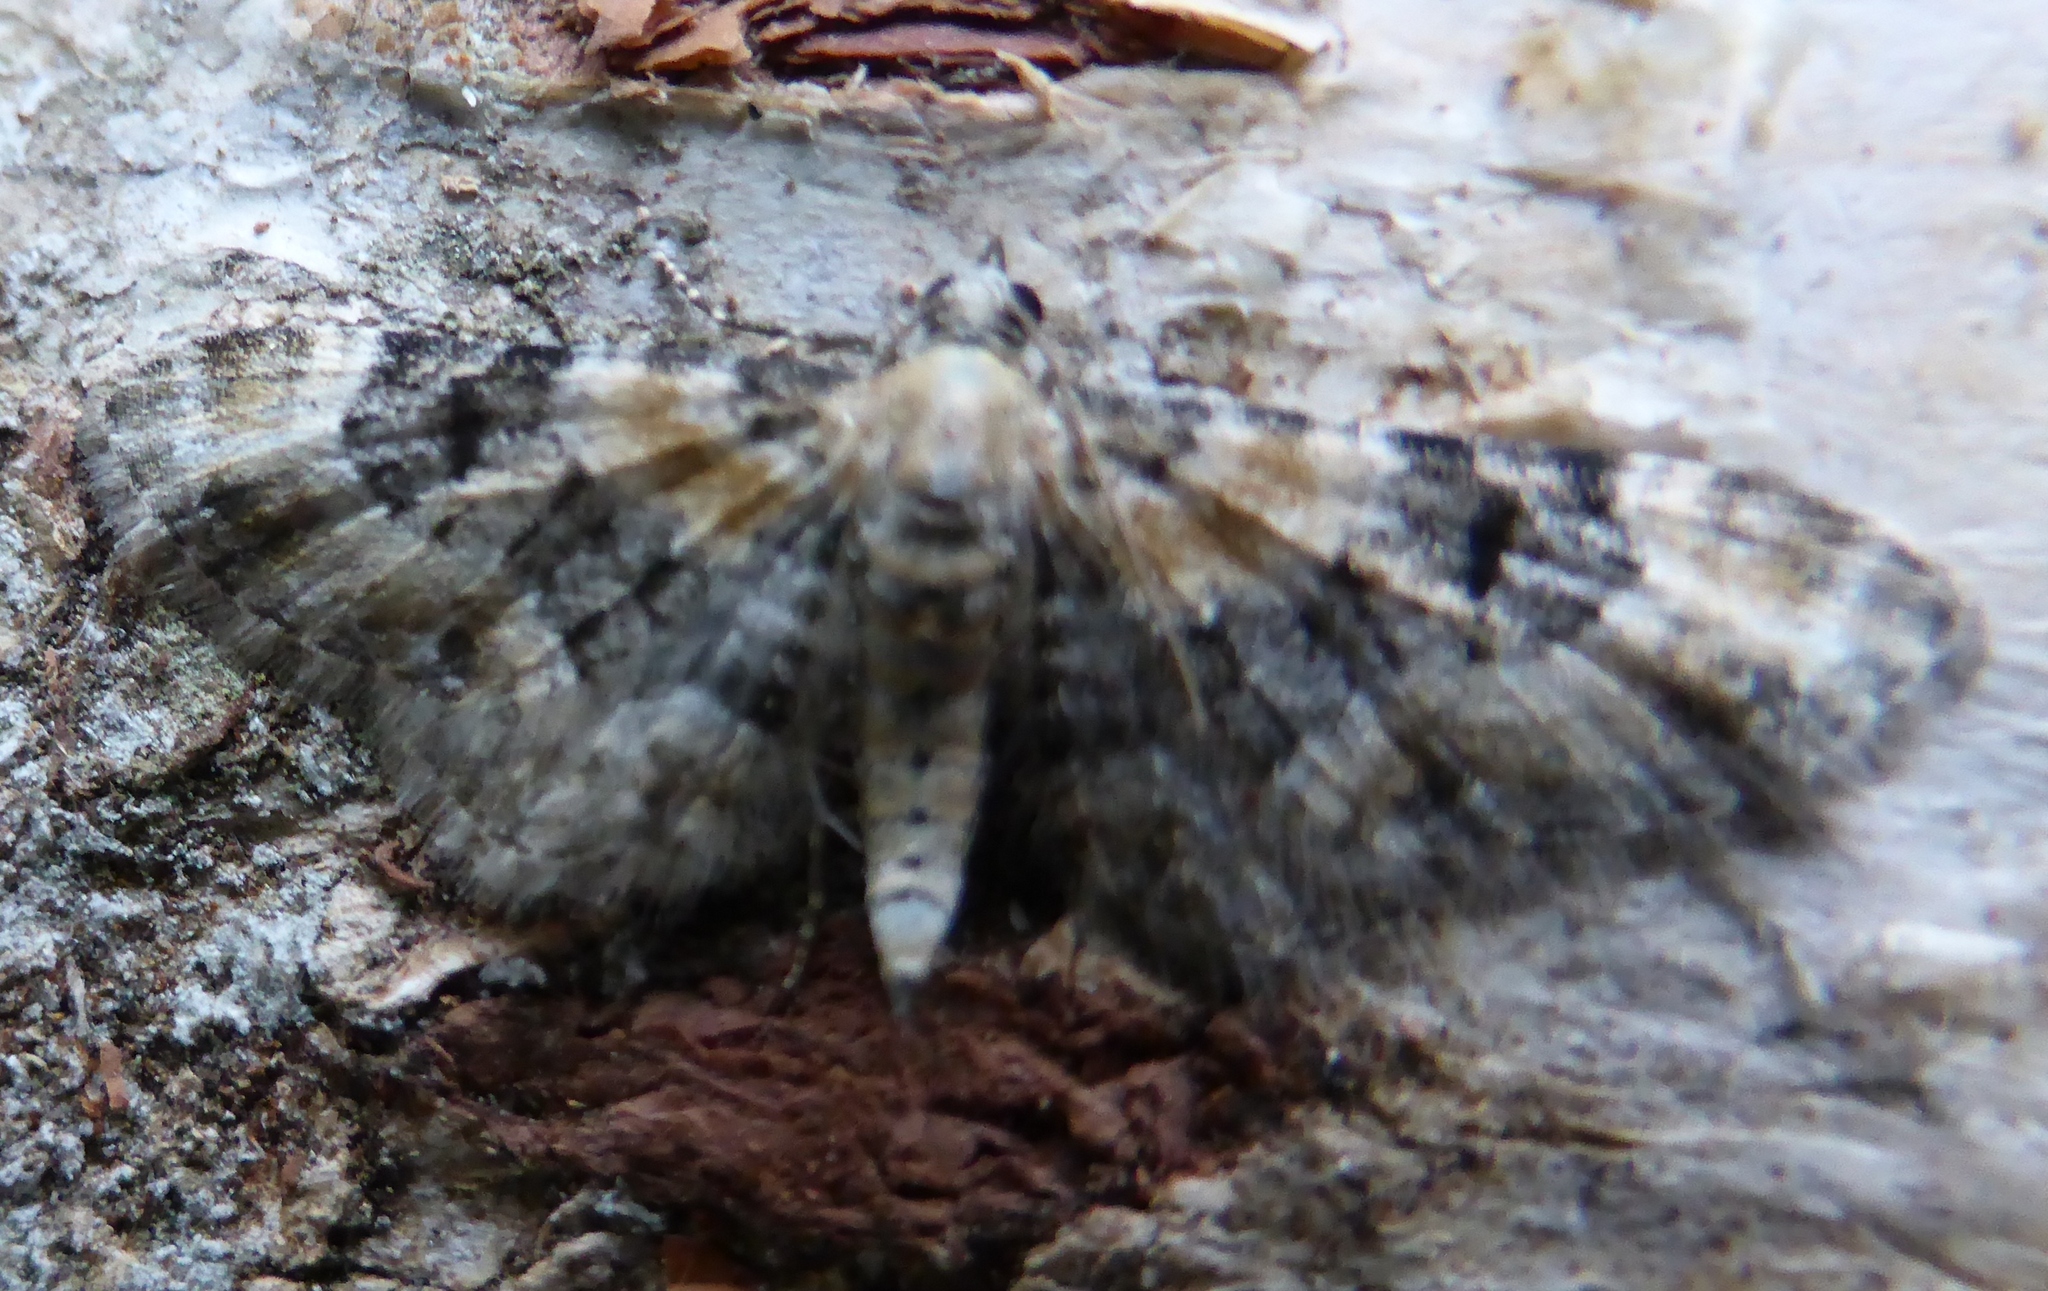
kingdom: Animalia
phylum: Arthropoda
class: Insecta
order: Lepidoptera
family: Geometridae
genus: Eupithecia
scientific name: Eupithecia pulchellata
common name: Foxglove pug
